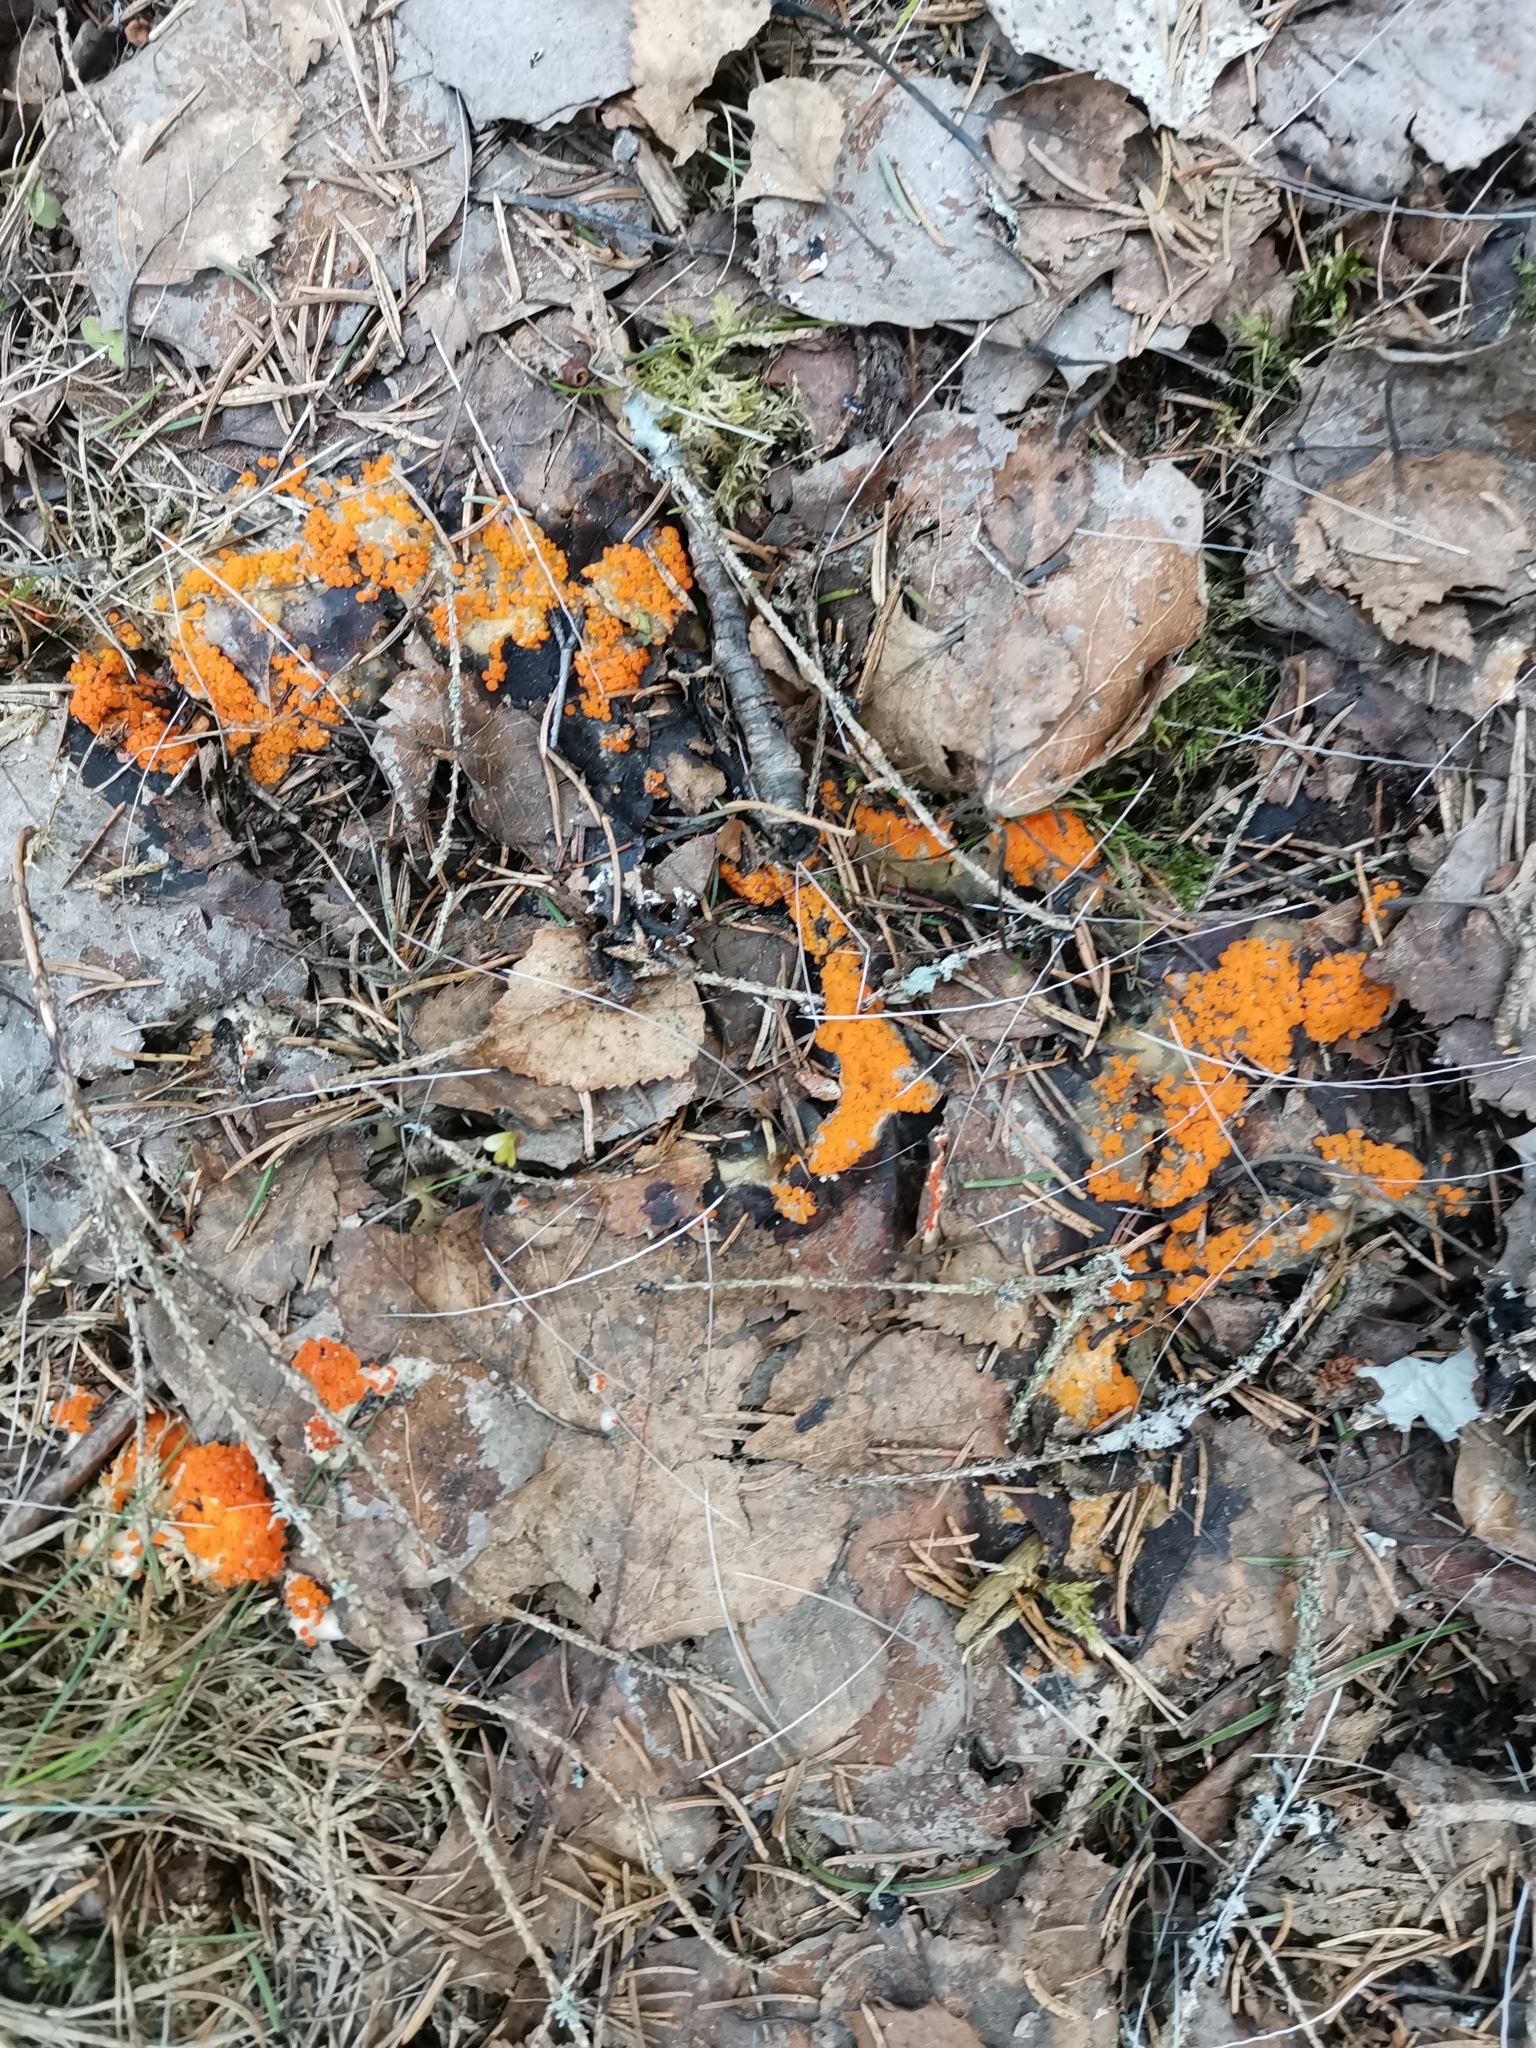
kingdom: Fungi
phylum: Ascomycota
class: Pezizomycetes
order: Pezizales
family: Pyronemataceae
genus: Byssonectria
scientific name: Byssonectria terrestris
